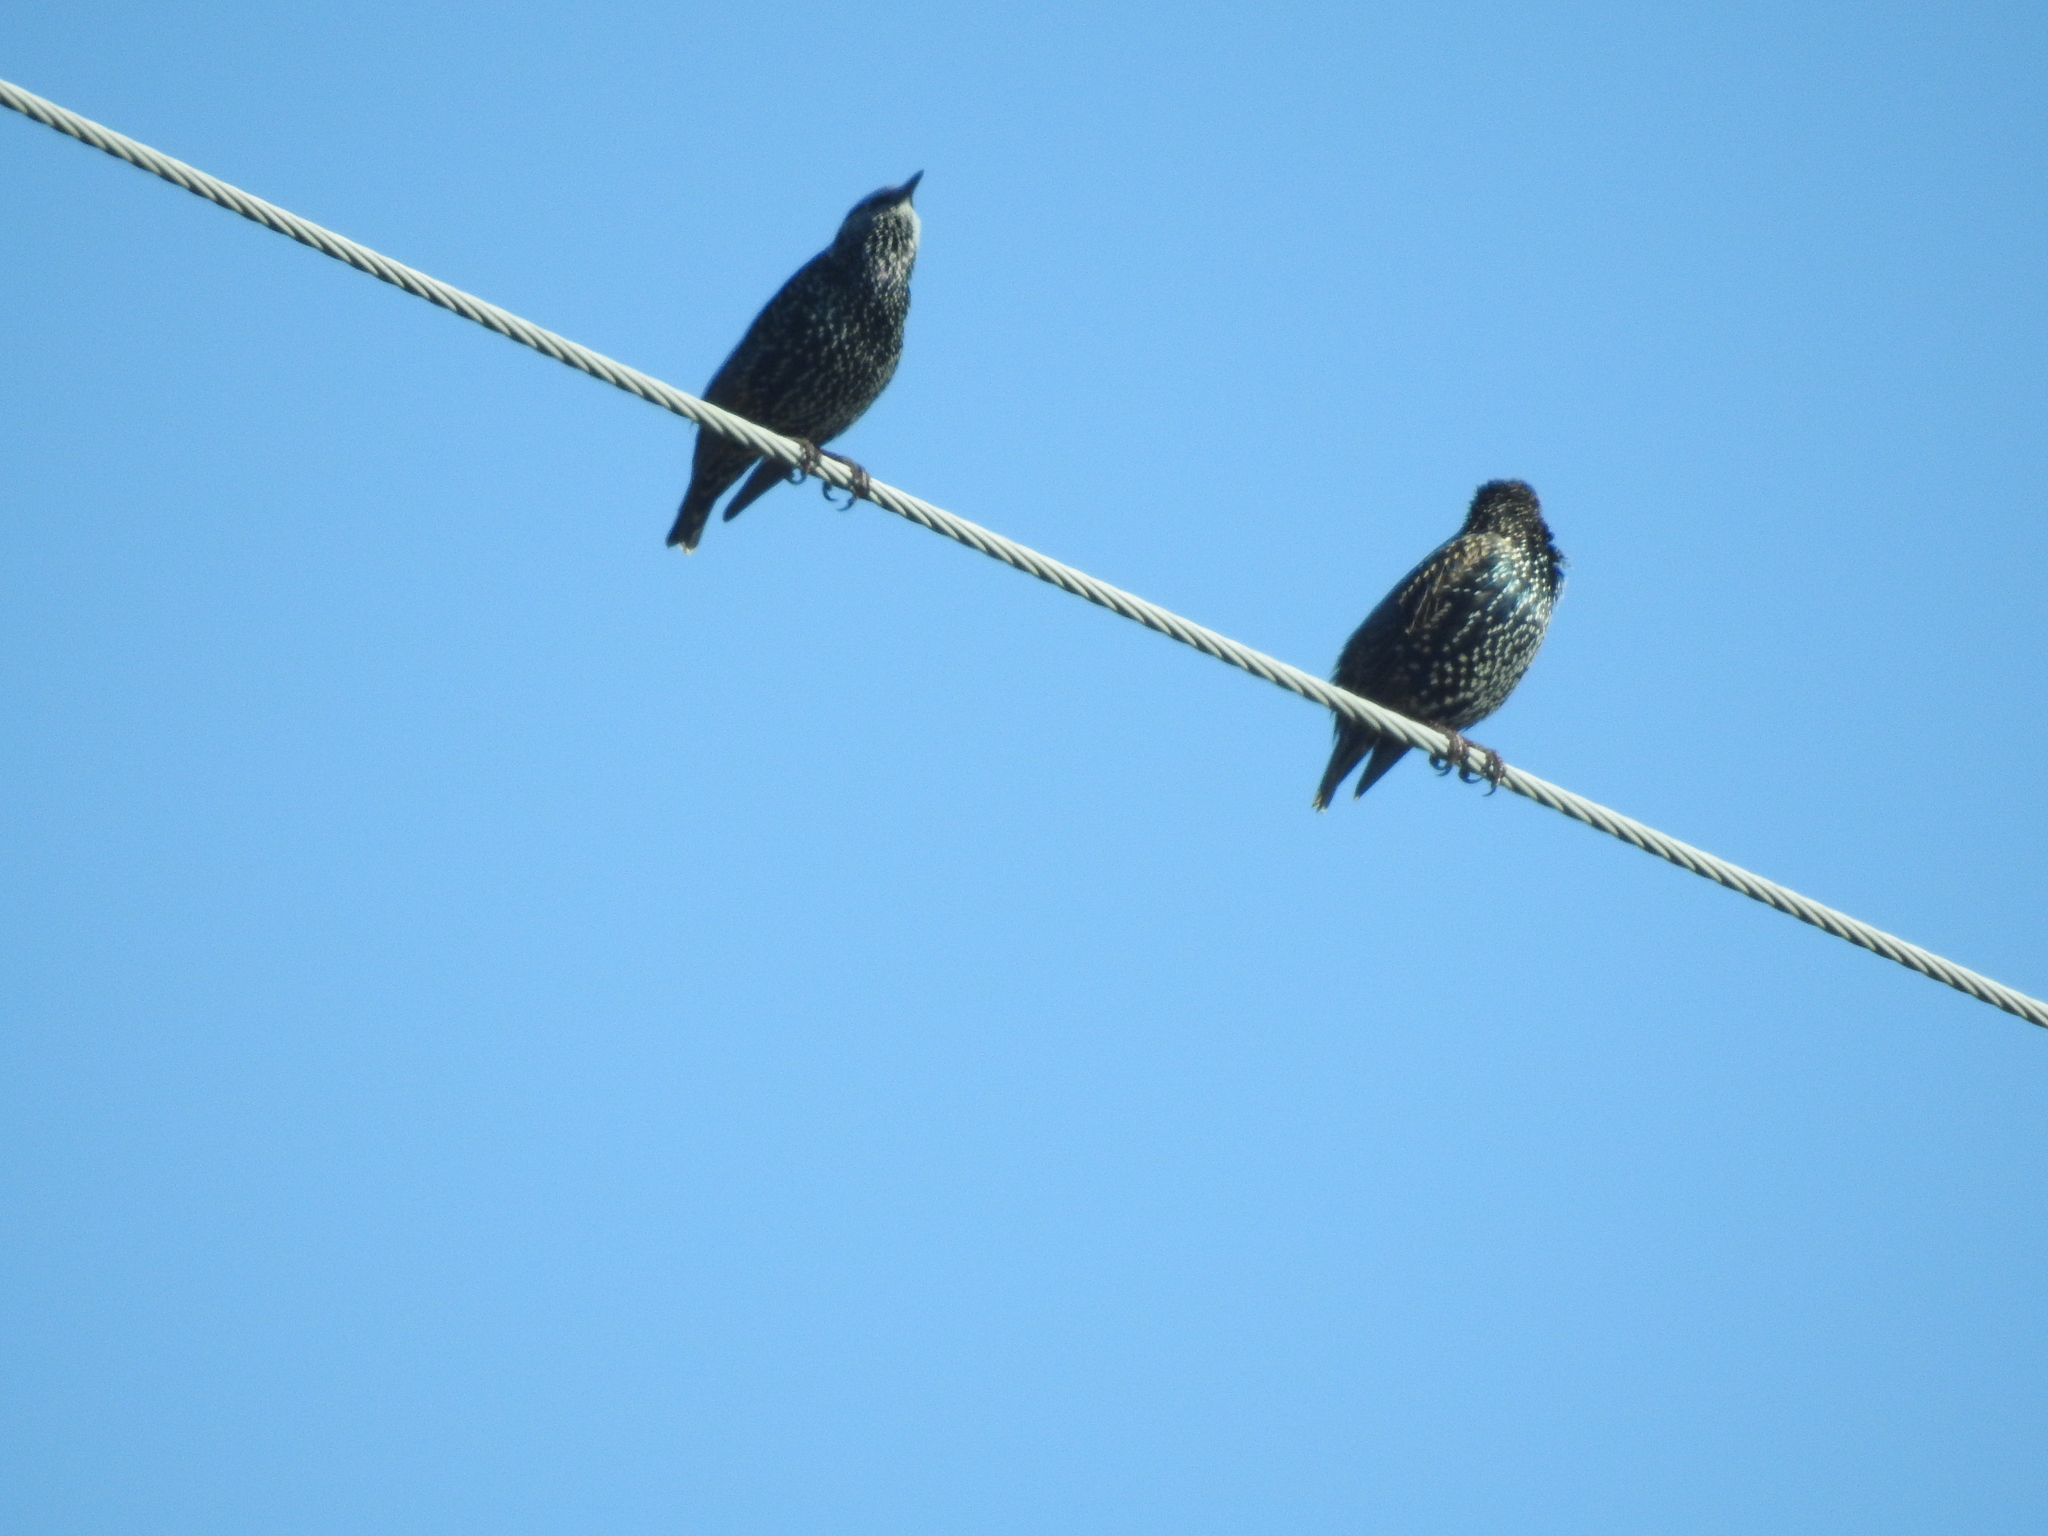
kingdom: Animalia
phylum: Chordata
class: Aves
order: Passeriformes
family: Sturnidae
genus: Sturnus
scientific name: Sturnus vulgaris
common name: Common starling
